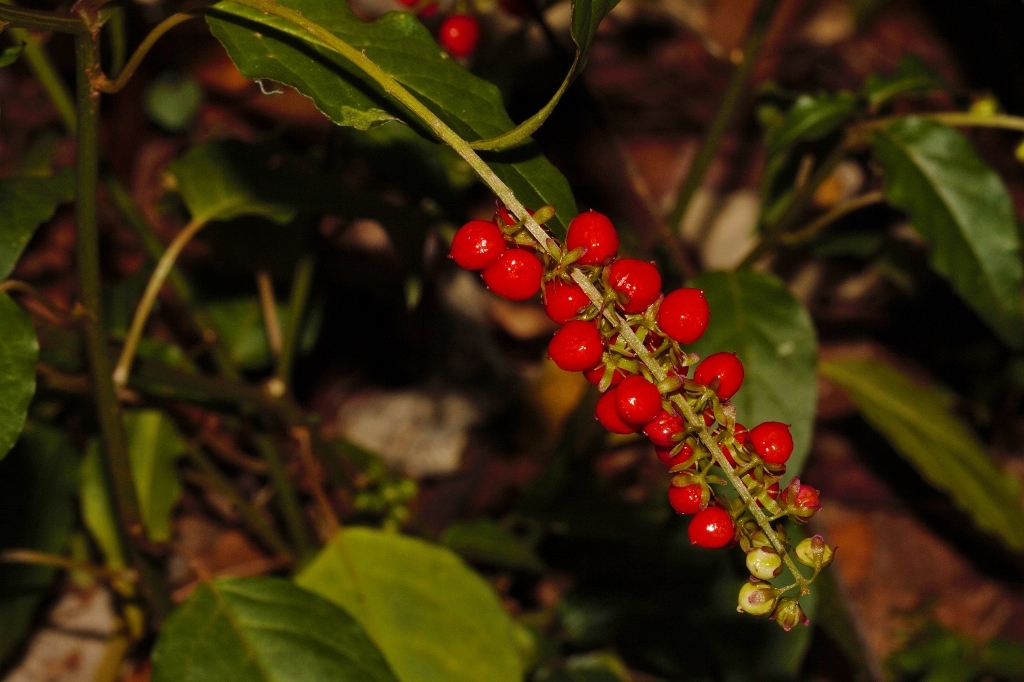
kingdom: Plantae
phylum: Tracheophyta
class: Magnoliopsida
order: Caryophyllales
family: Phytolaccaceae
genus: Rivina
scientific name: Rivina humilis
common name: Rougeplant
